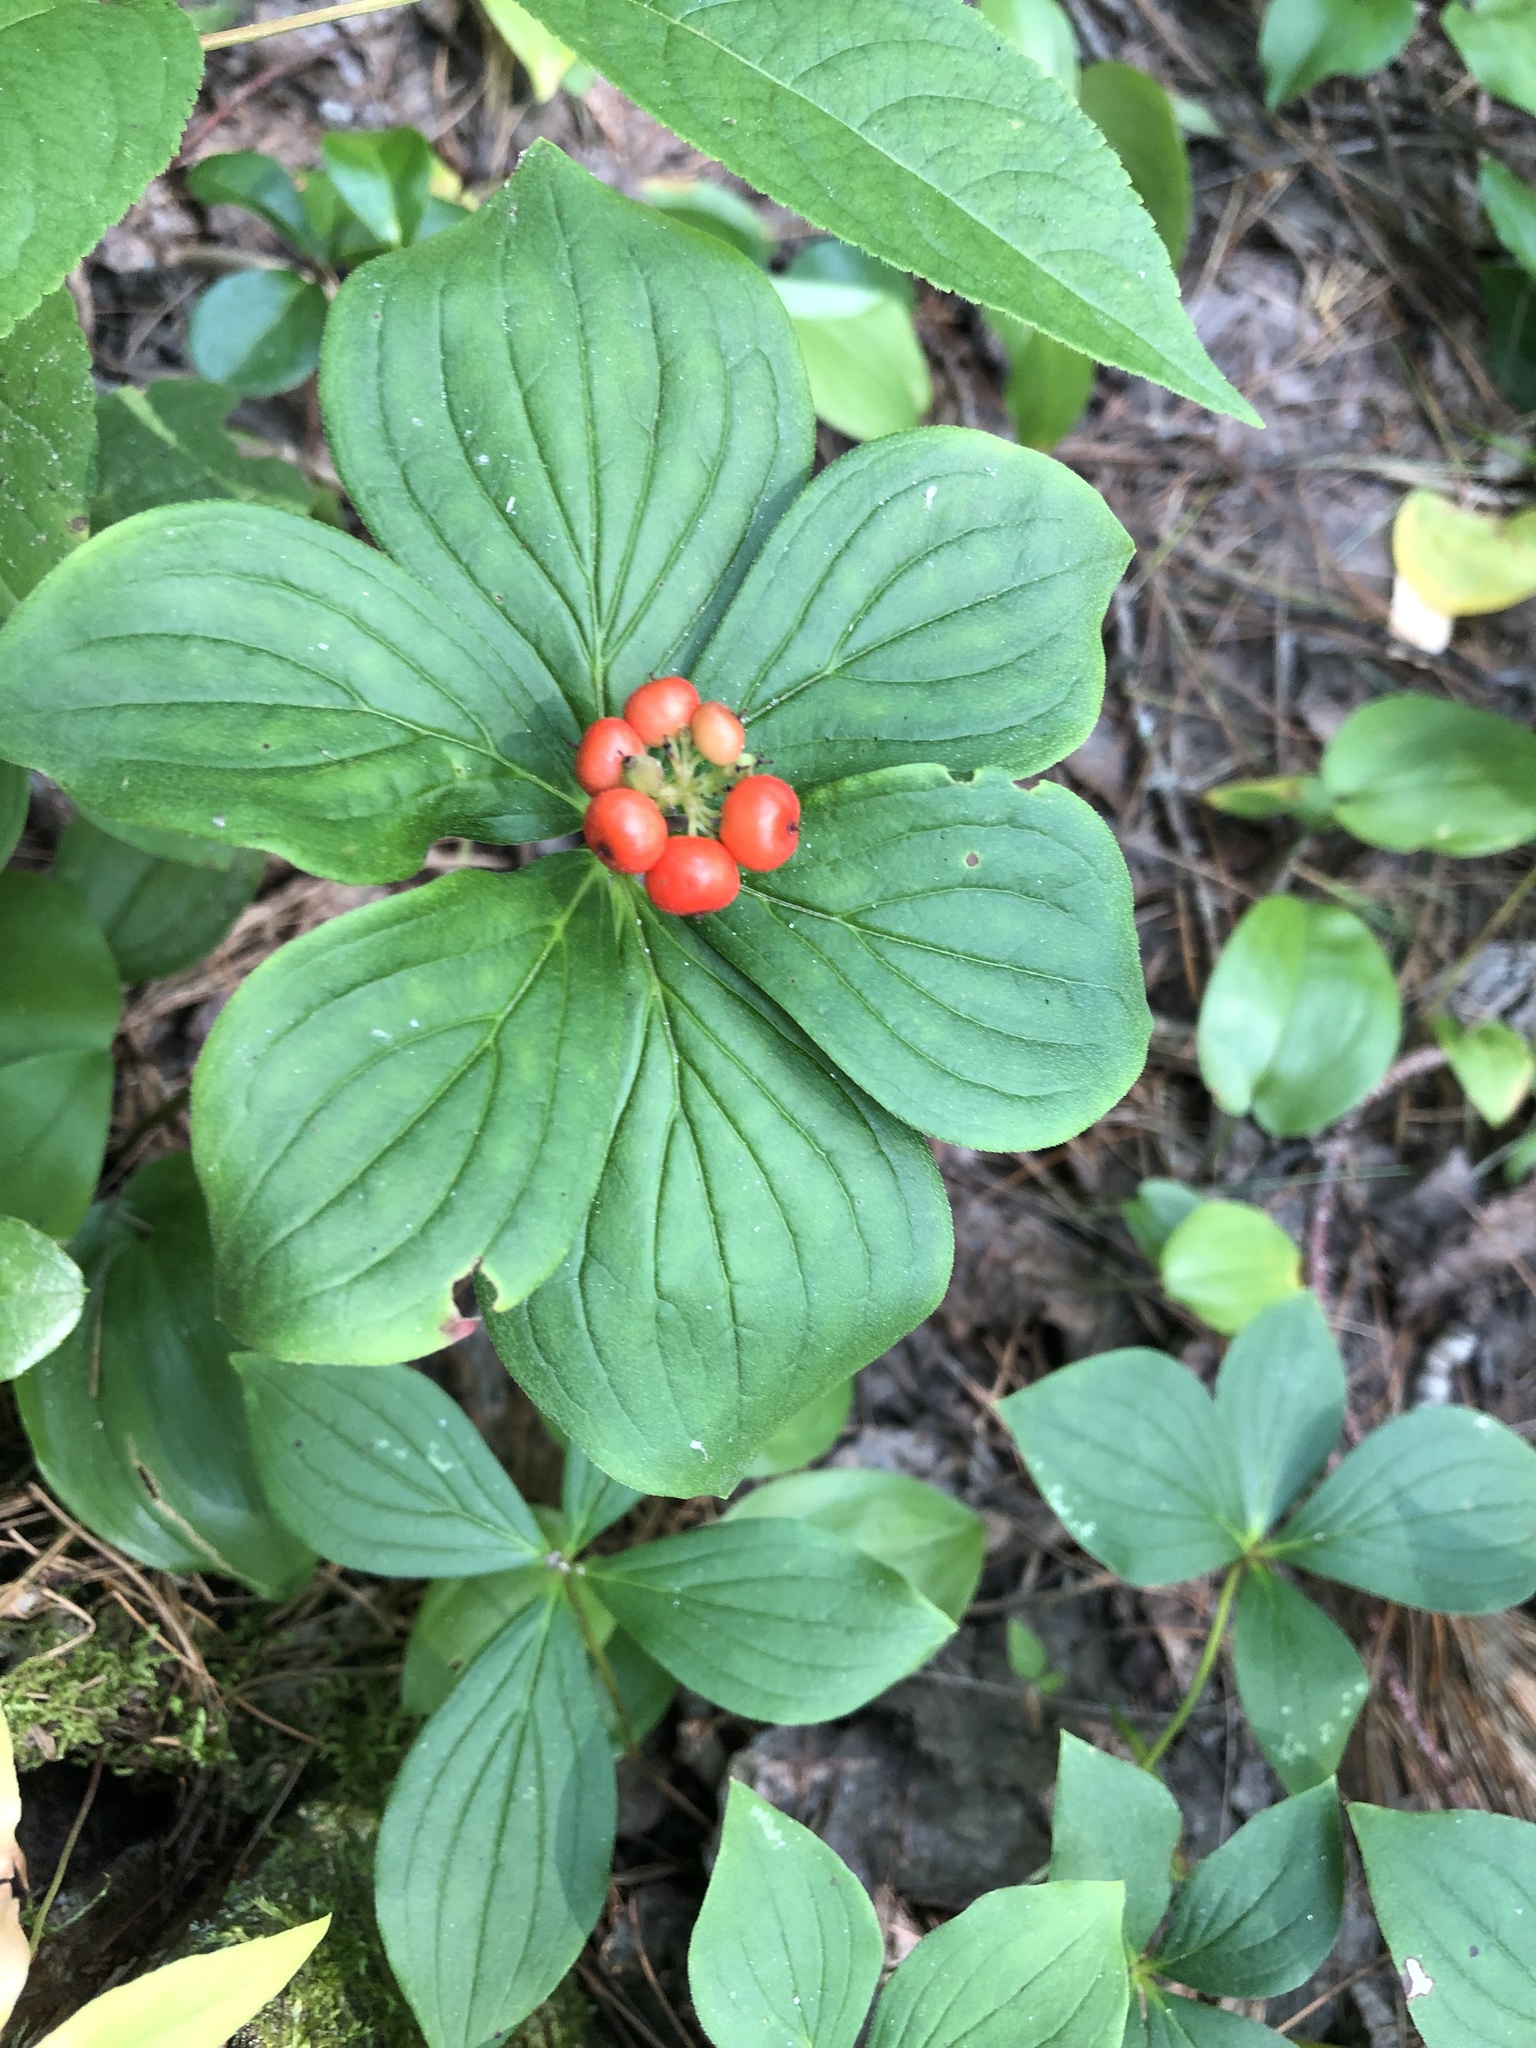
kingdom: Plantae
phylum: Tracheophyta
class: Magnoliopsida
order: Cornales
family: Cornaceae
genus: Cornus
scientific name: Cornus canadensis
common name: Creeping dogwood
